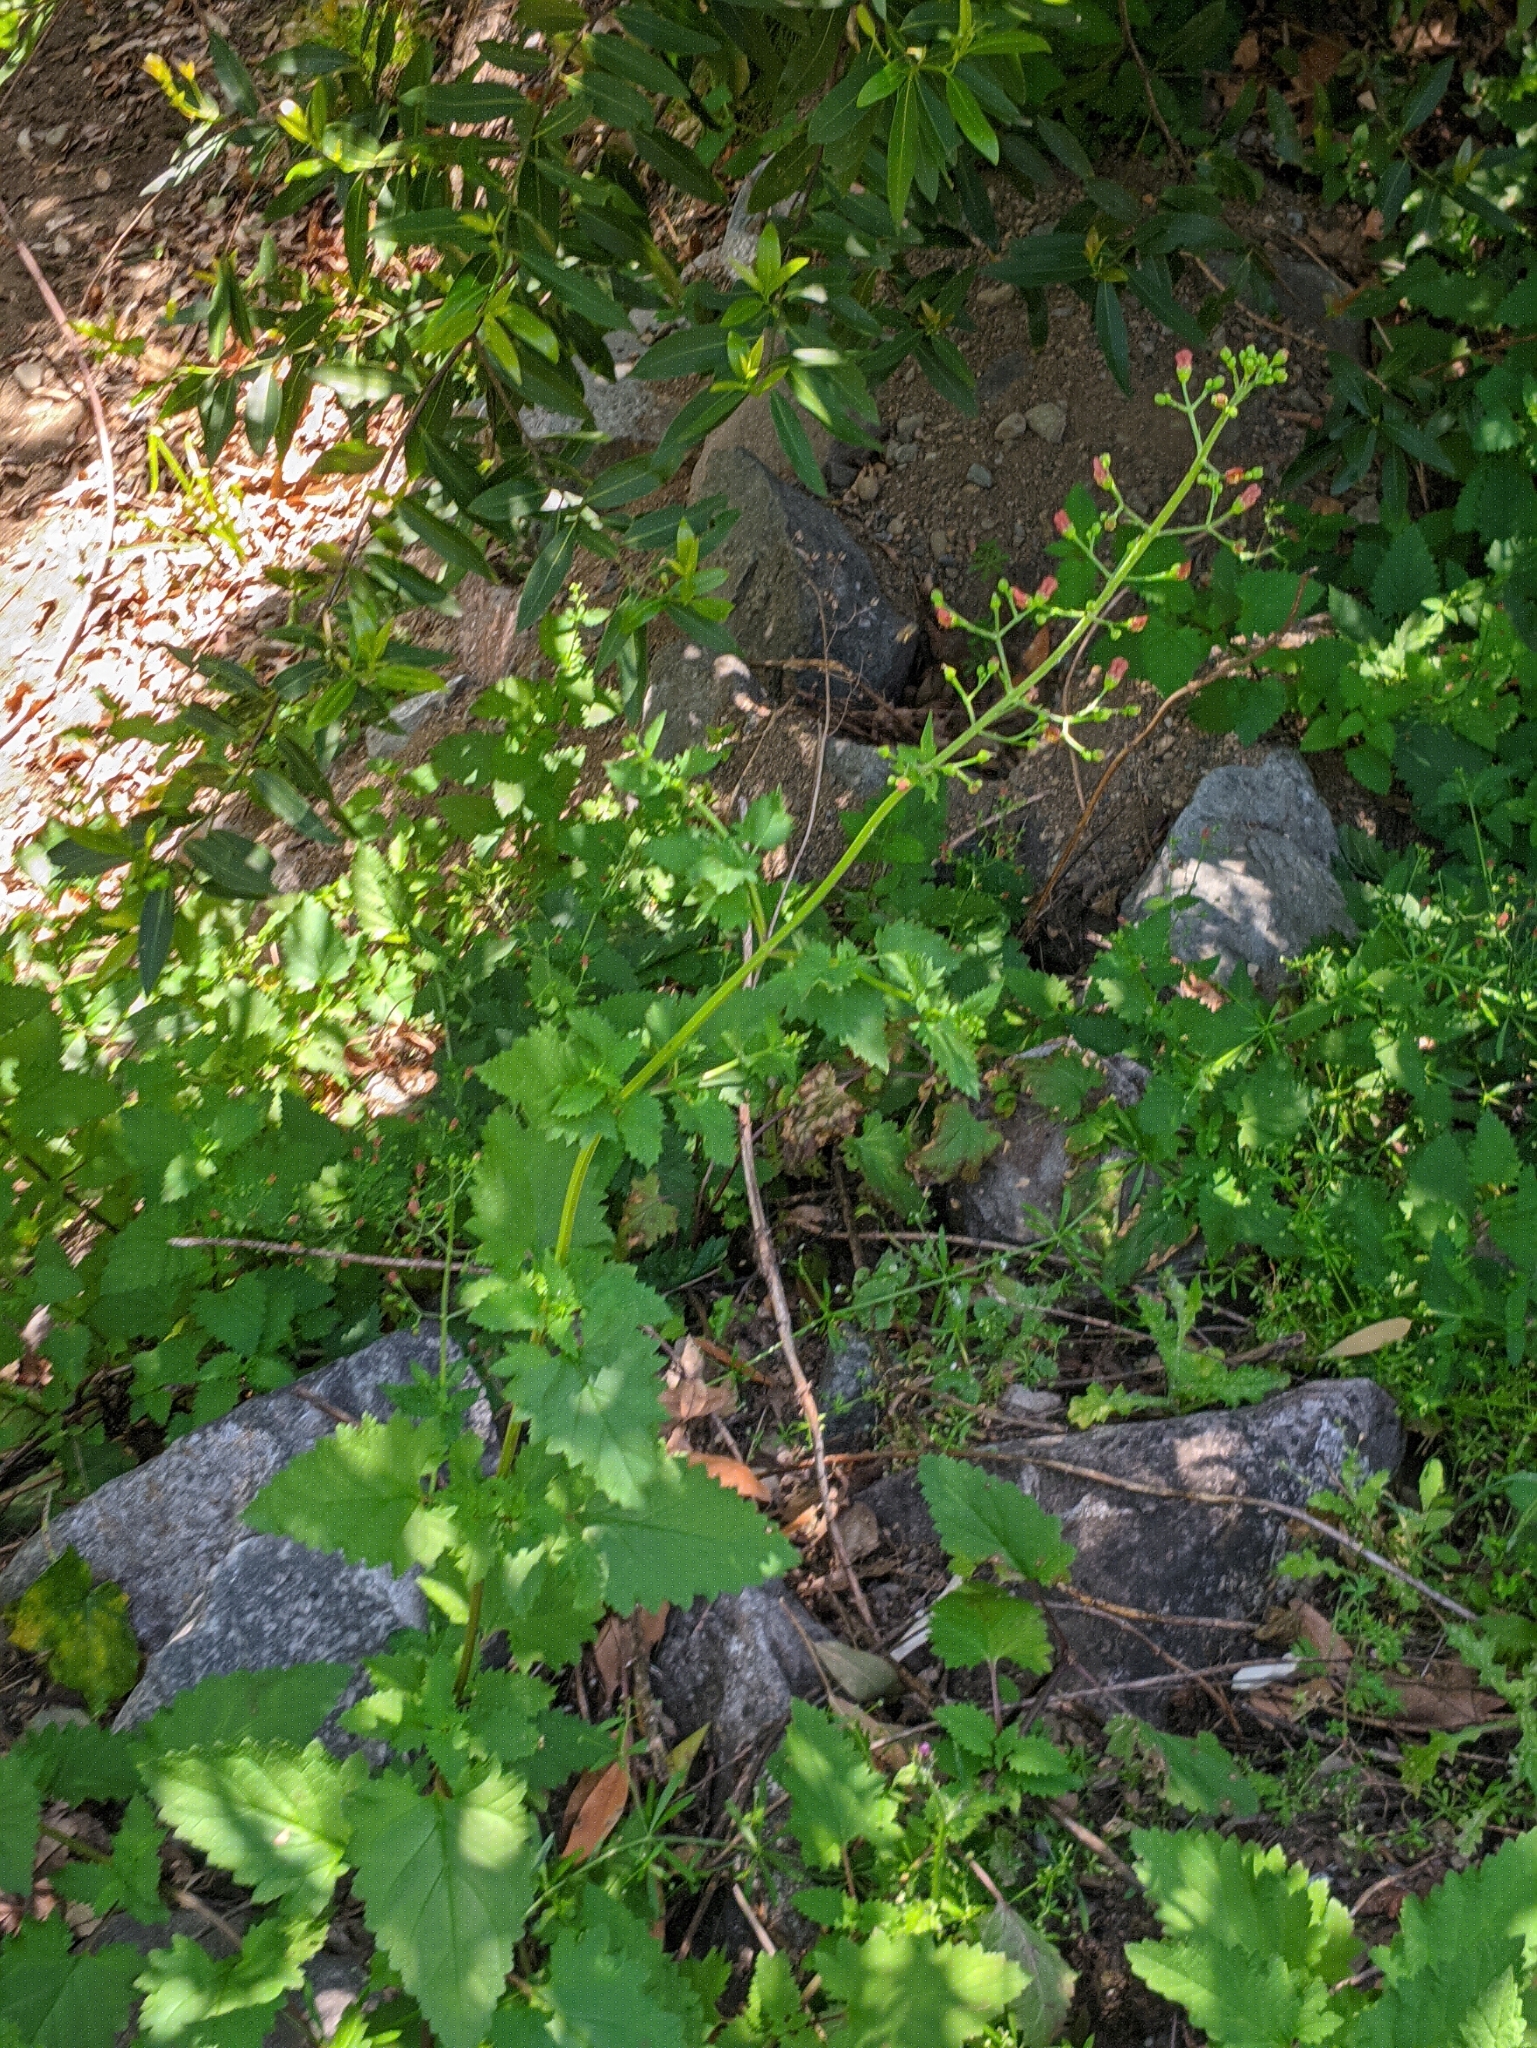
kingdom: Plantae
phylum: Tracheophyta
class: Magnoliopsida
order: Lamiales
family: Scrophulariaceae
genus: Scrophularia
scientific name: Scrophularia californica
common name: California figwort
